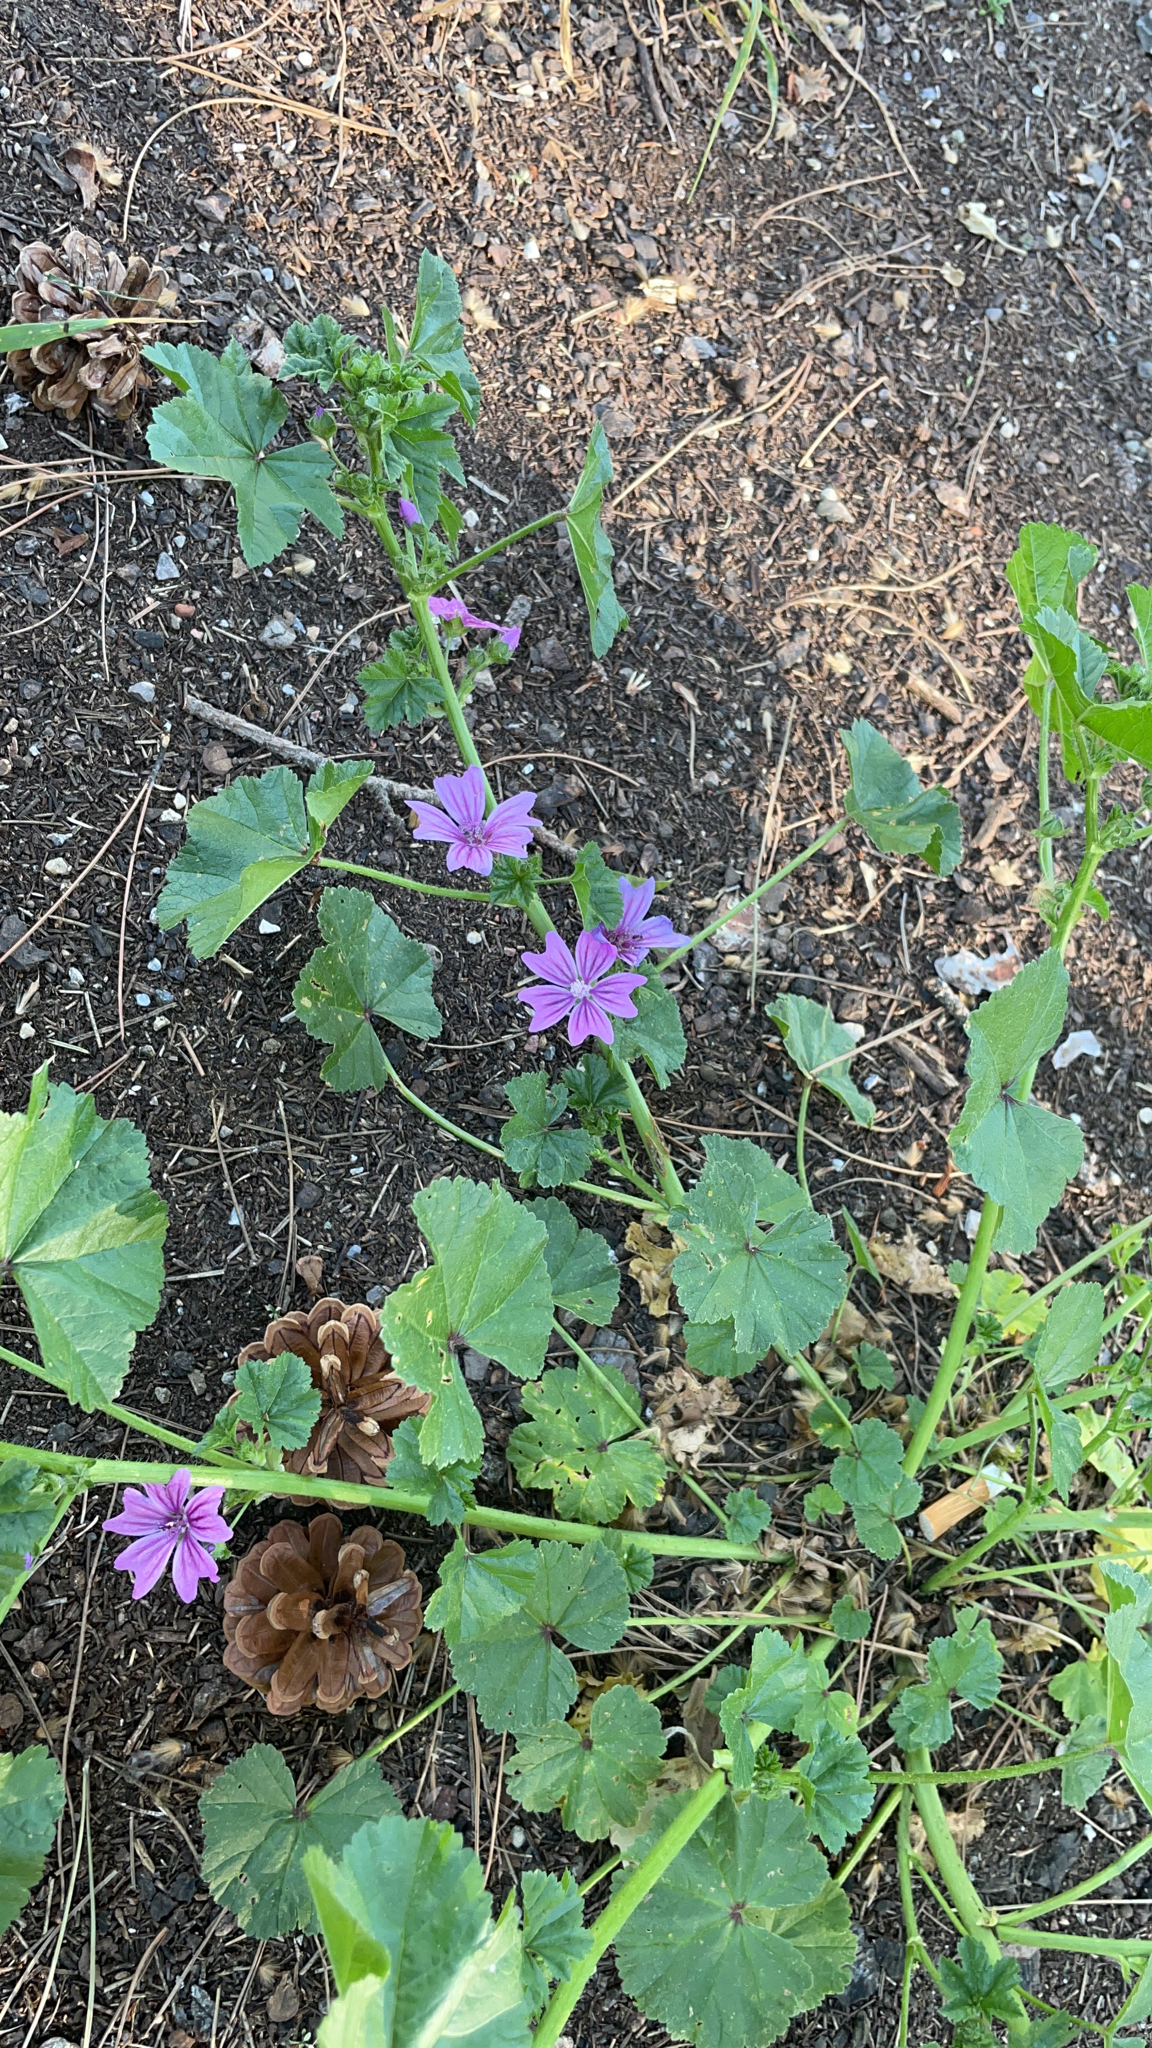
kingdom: Plantae
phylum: Tracheophyta
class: Magnoliopsida
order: Malvales
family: Malvaceae
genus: Malva
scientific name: Malva sylvestris
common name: Common mallow
